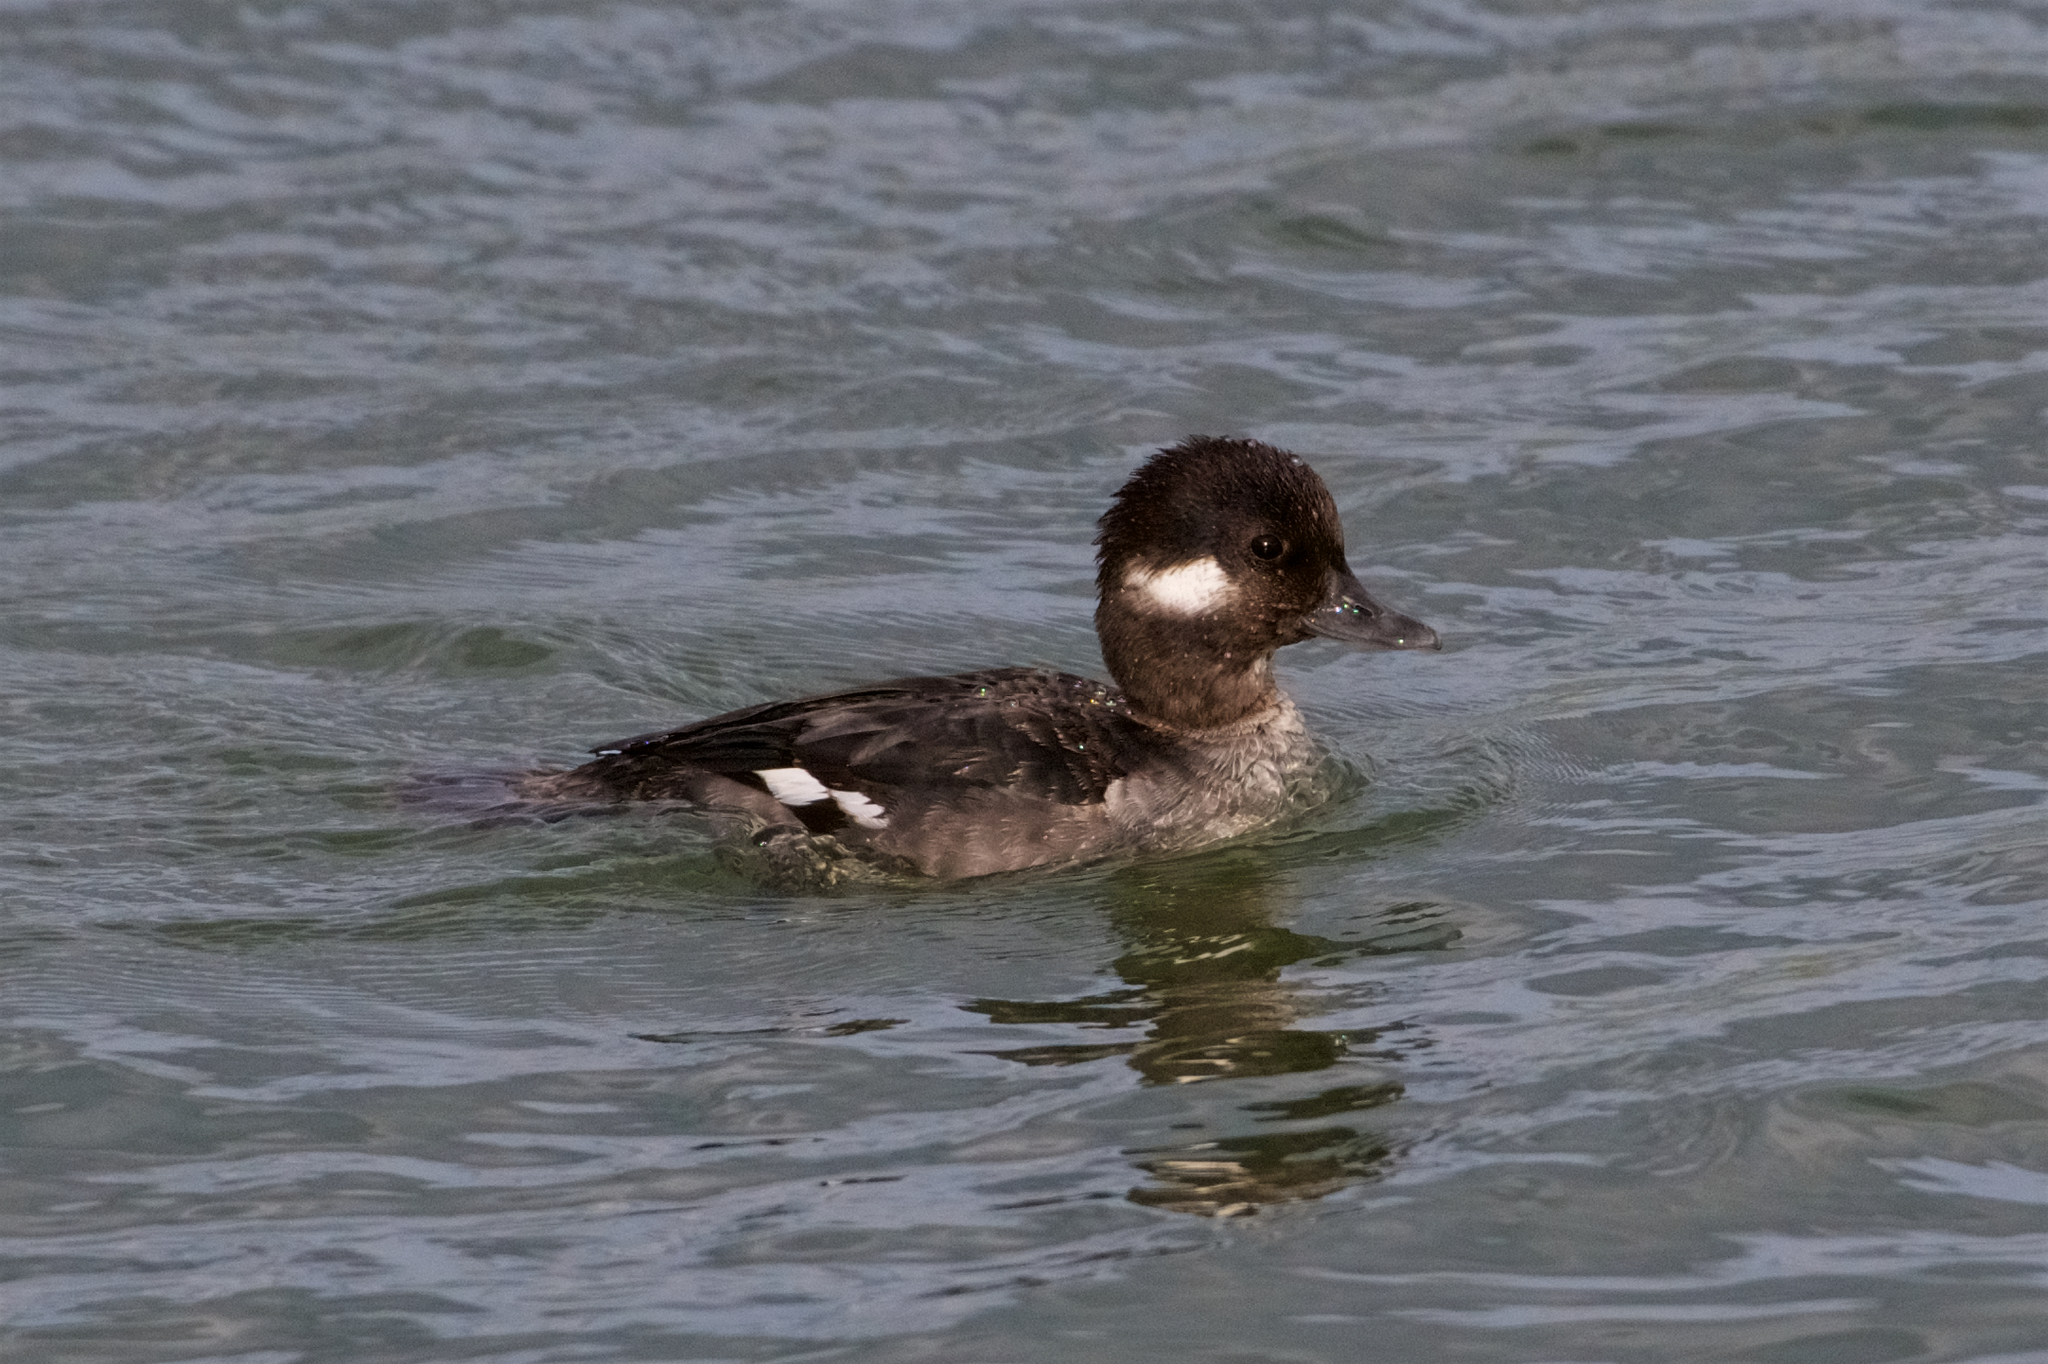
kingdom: Animalia
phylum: Chordata
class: Aves
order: Anseriformes
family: Anatidae
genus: Bucephala
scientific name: Bucephala albeola
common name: Bufflehead
